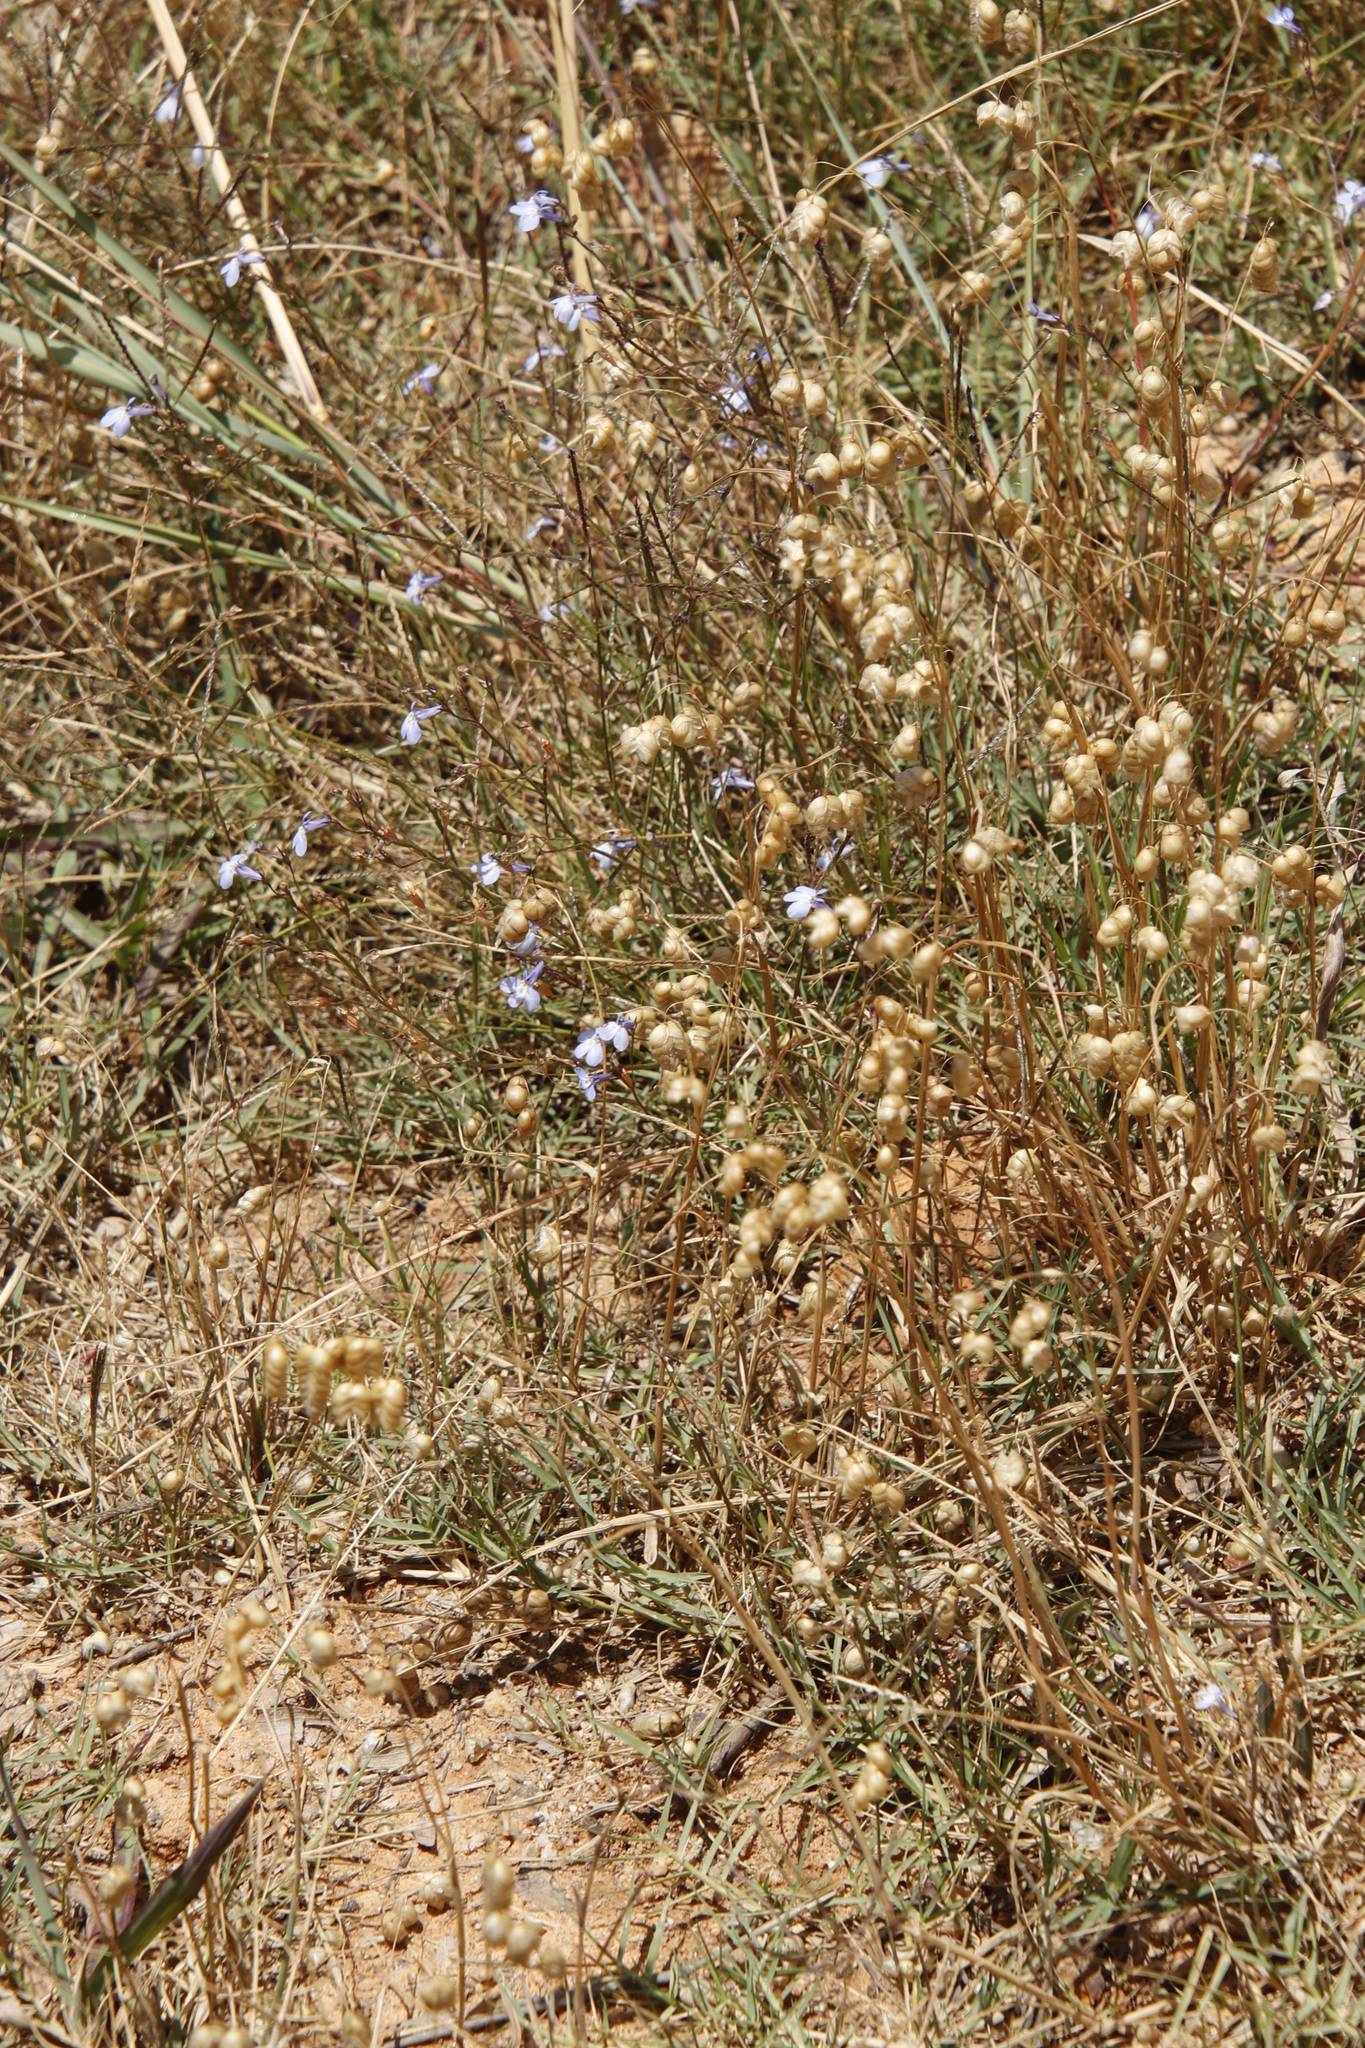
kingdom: Plantae
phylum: Tracheophyta
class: Magnoliopsida
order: Asterales
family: Campanulaceae
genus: Lobelia
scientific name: Lobelia erinus
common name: Edging lobelia
